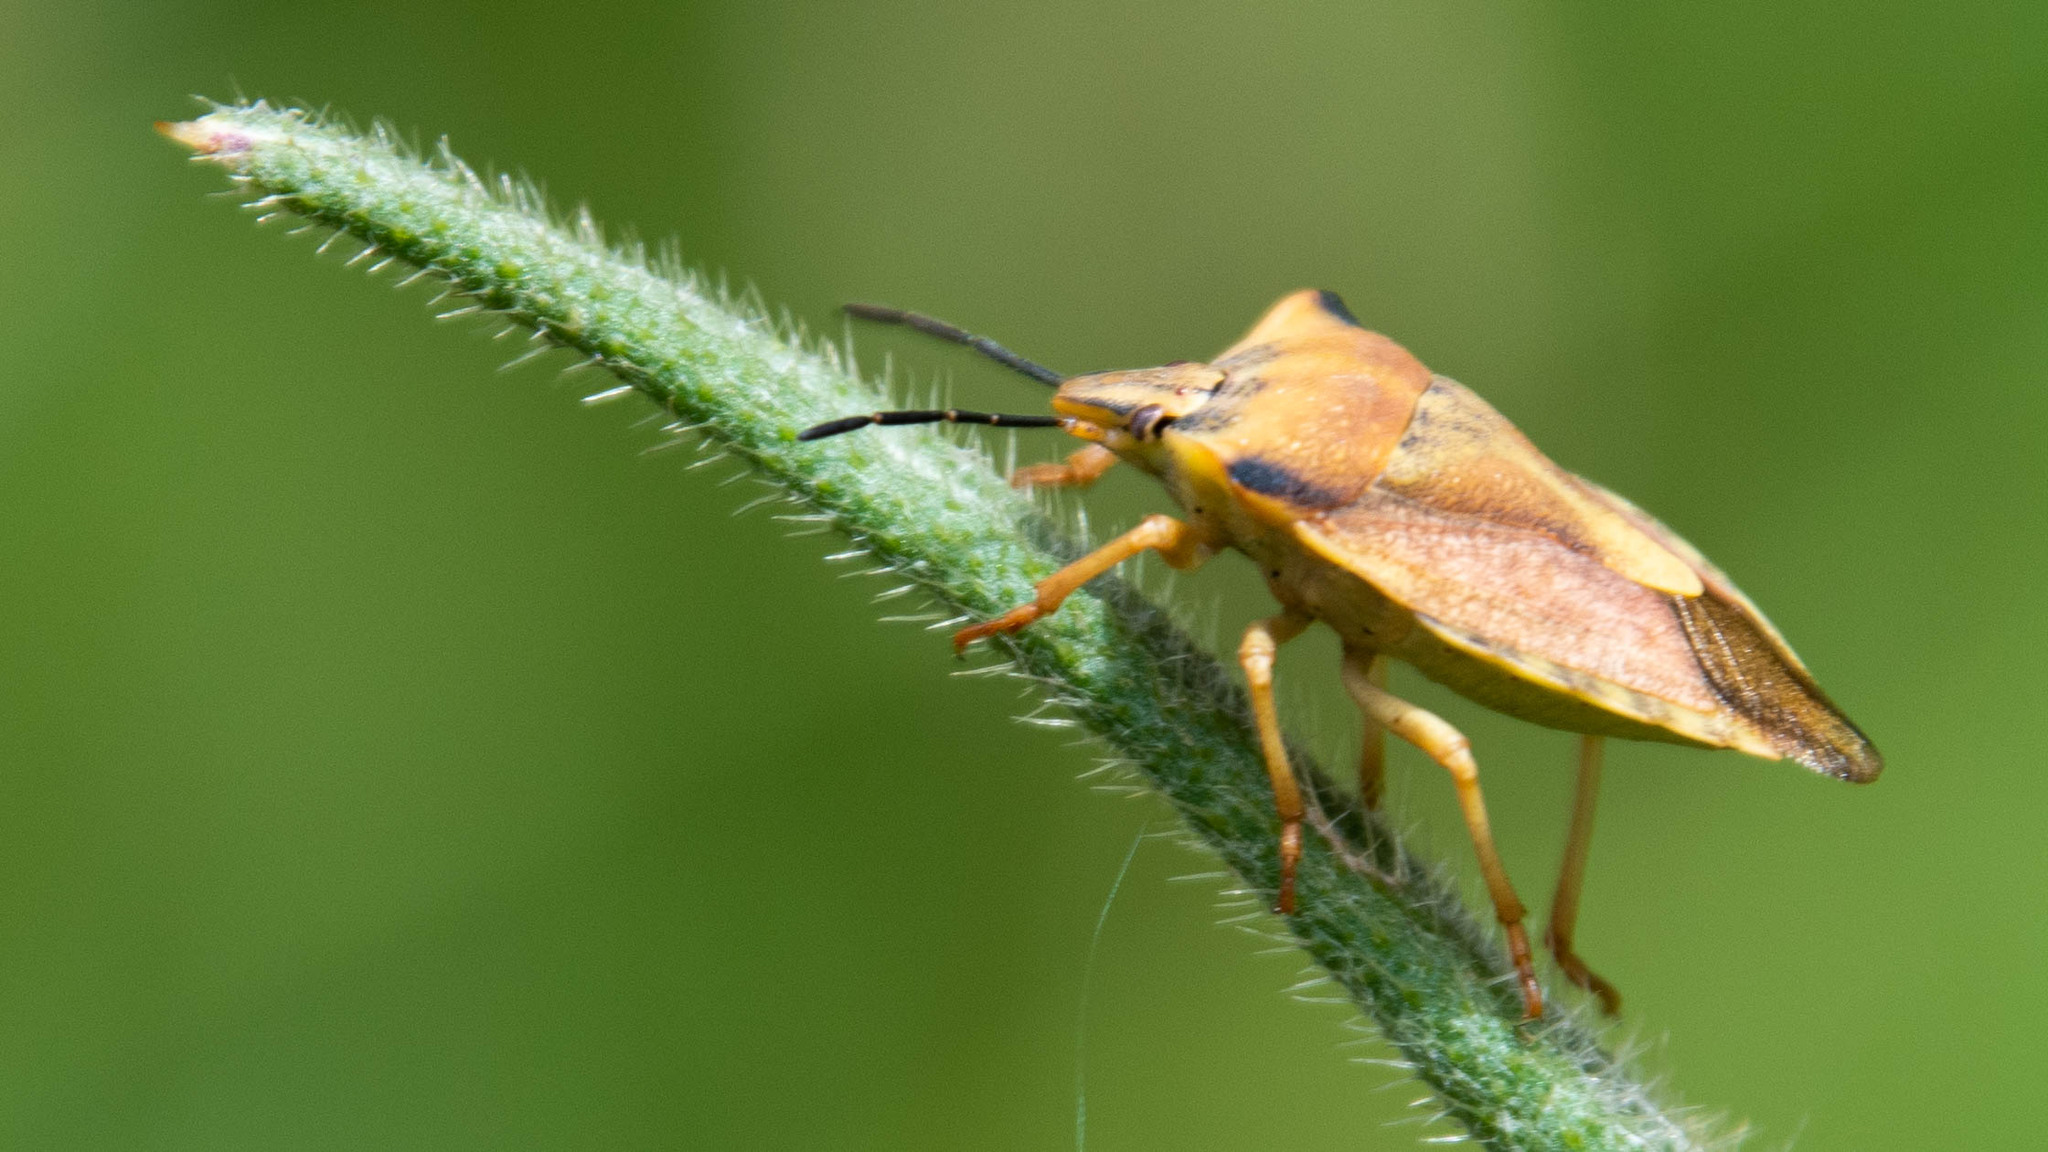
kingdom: Animalia
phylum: Arthropoda
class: Insecta
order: Hemiptera
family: Pentatomidae
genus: Carpocoris
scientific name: Carpocoris fuscispinus
